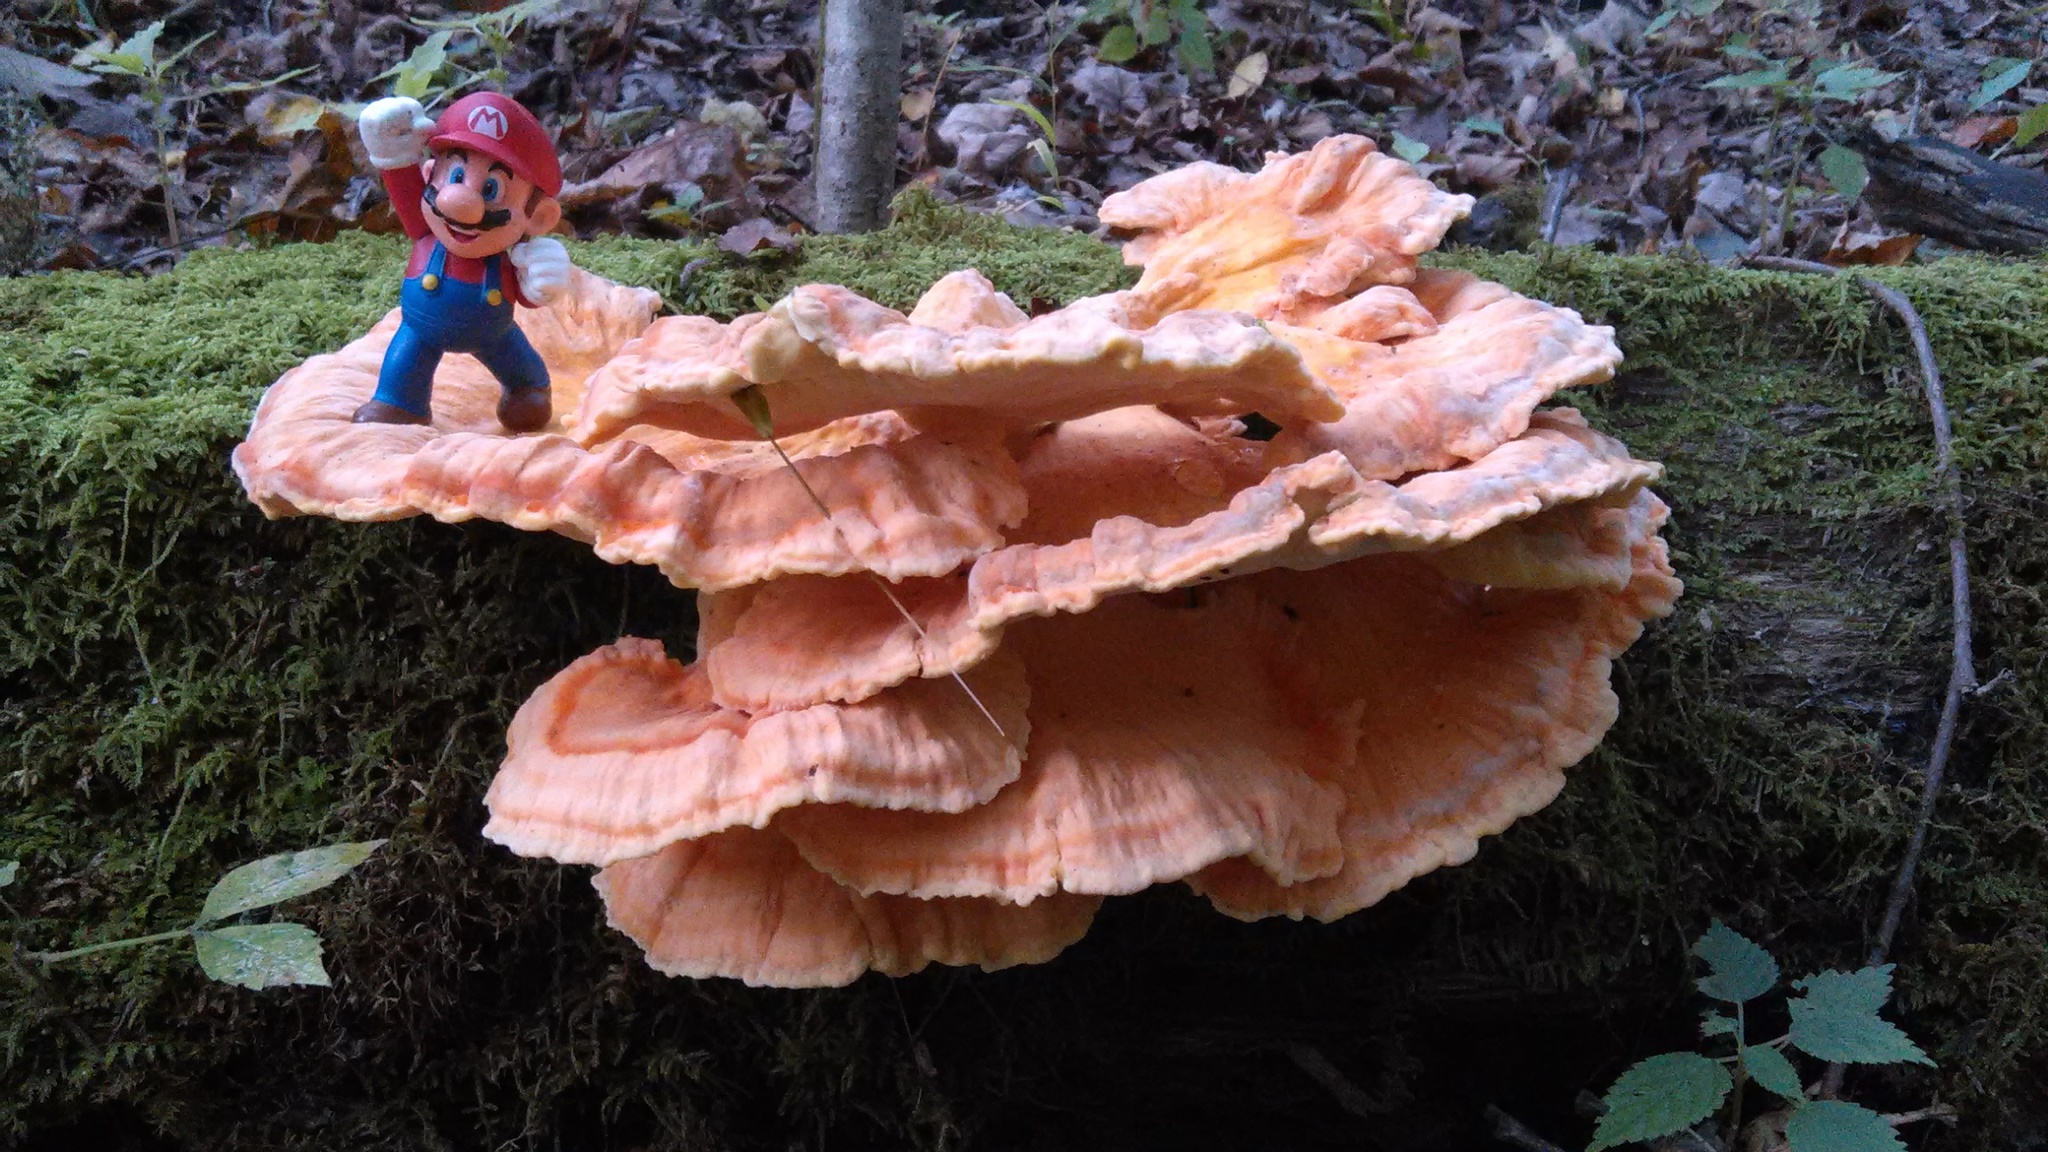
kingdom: Fungi
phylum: Basidiomycota
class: Agaricomycetes
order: Polyporales
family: Laetiporaceae
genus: Laetiporus
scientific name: Laetiporus sulphureus
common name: Chicken of the woods
